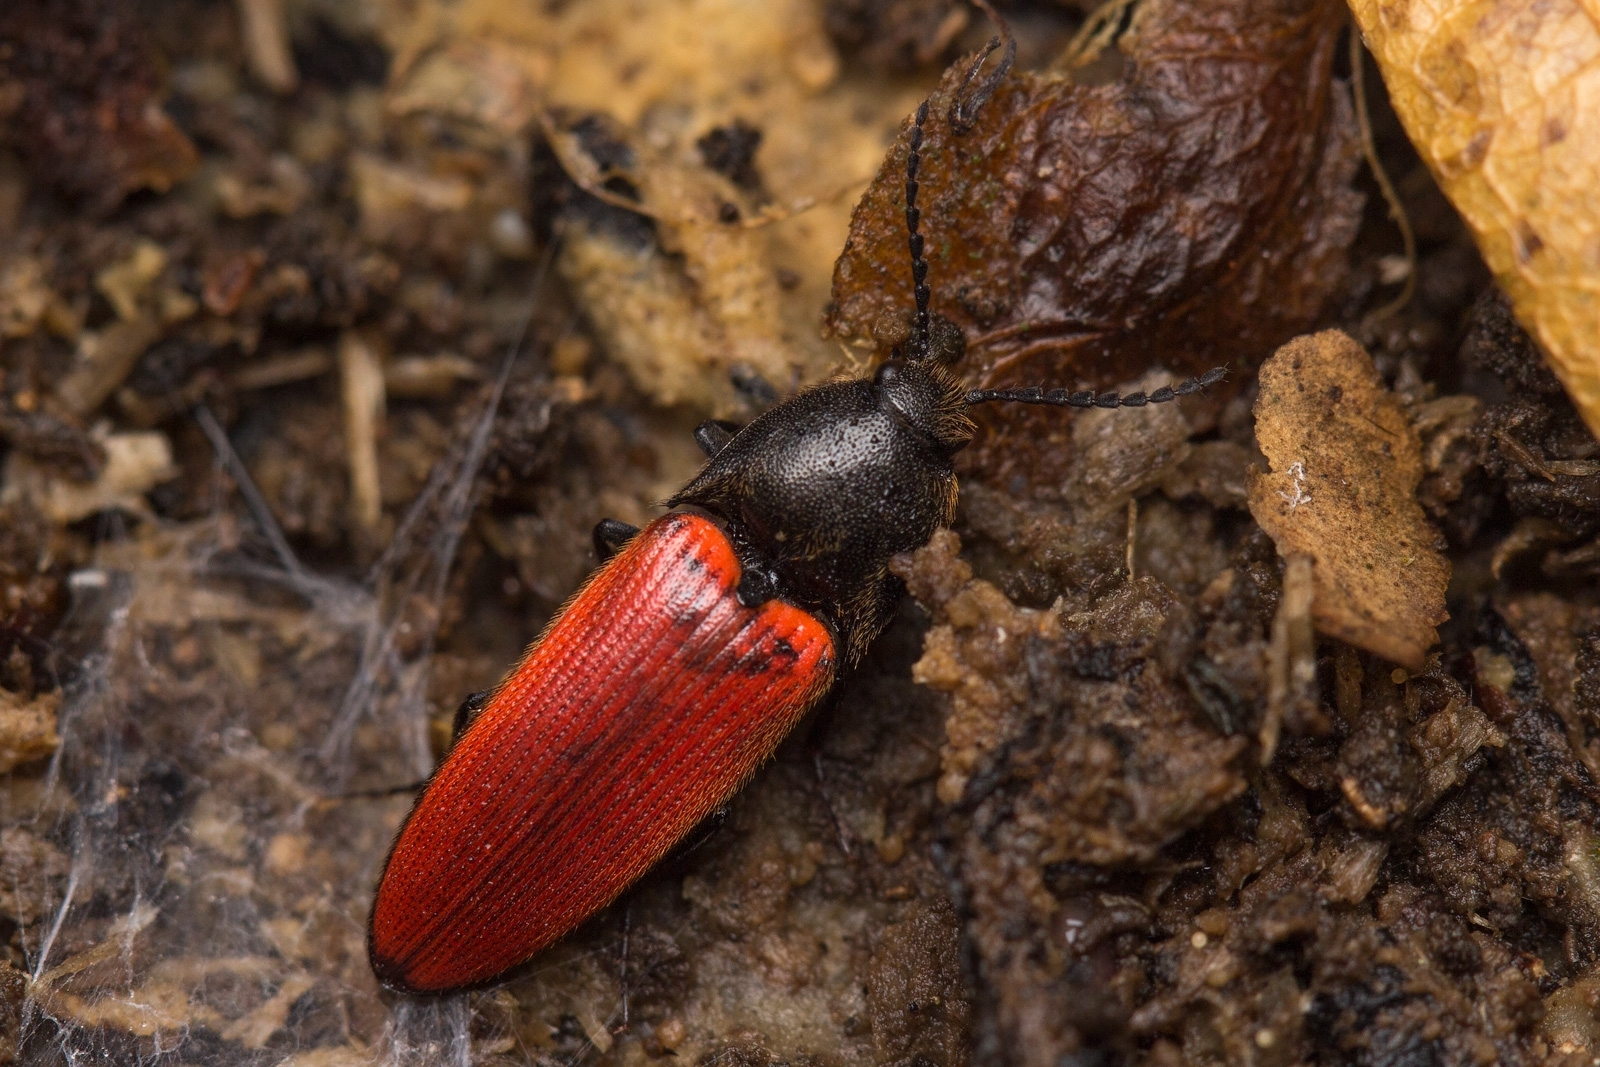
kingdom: Animalia
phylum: Arthropoda
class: Insecta
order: Coleoptera
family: Elateridae
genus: Ampedus
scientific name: Ampedus sanguineus
